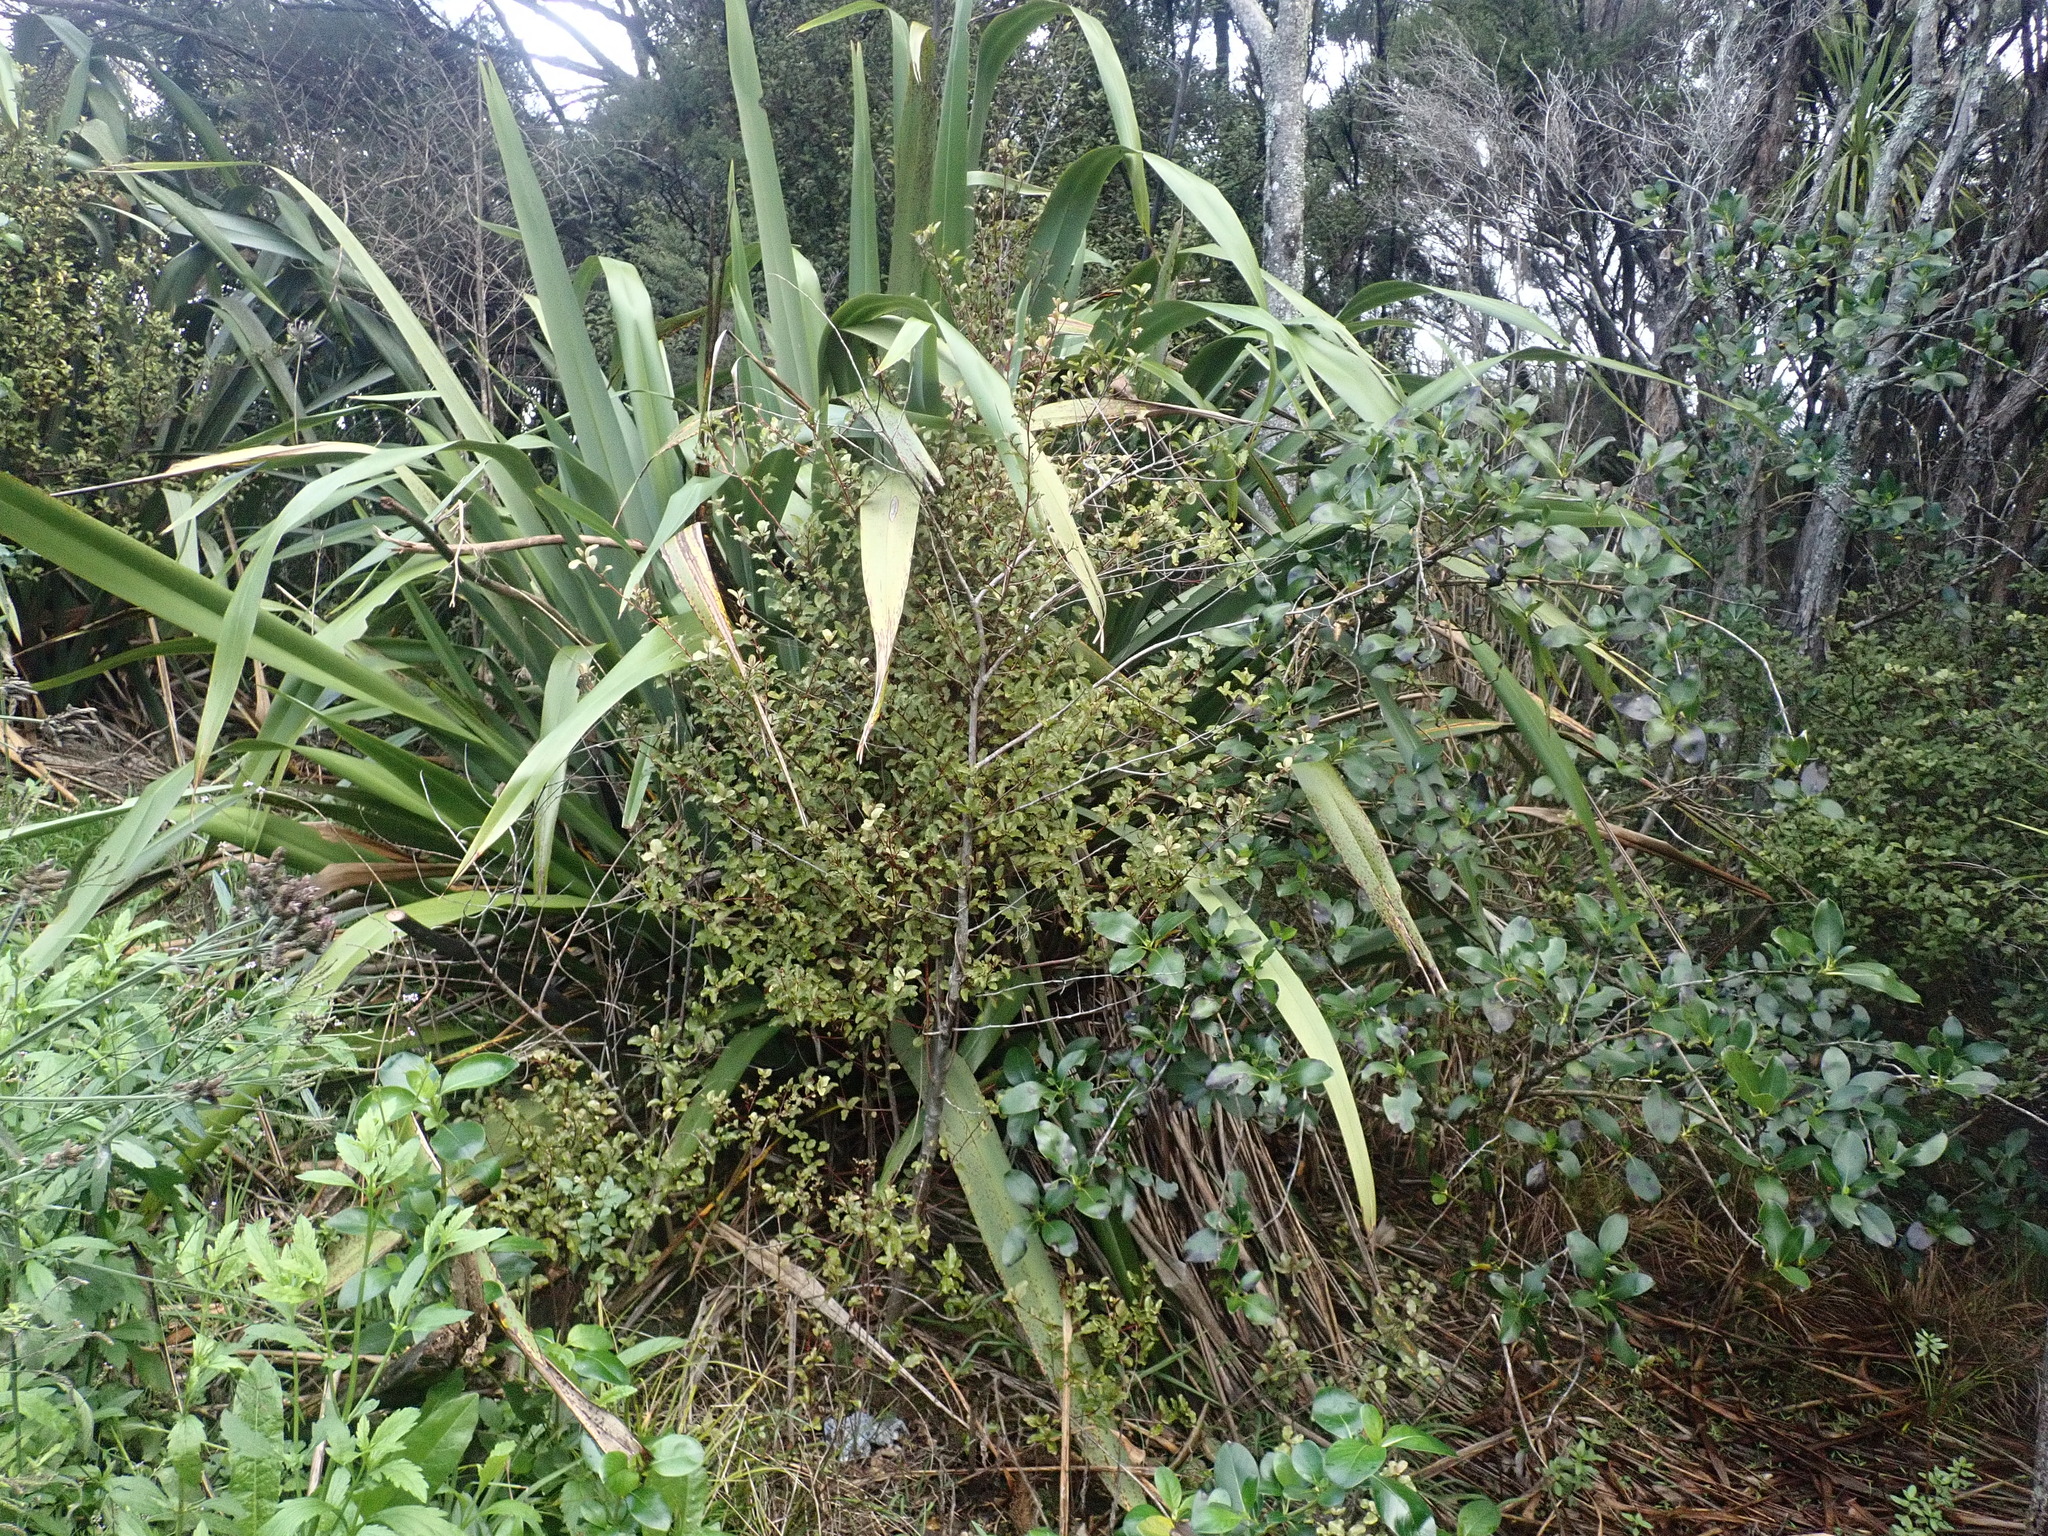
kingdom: Plantae
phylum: Tracheophyta
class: Magnoliopsida
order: Ericales
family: Primulaceae
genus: Myrsine
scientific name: Myrsine australis
